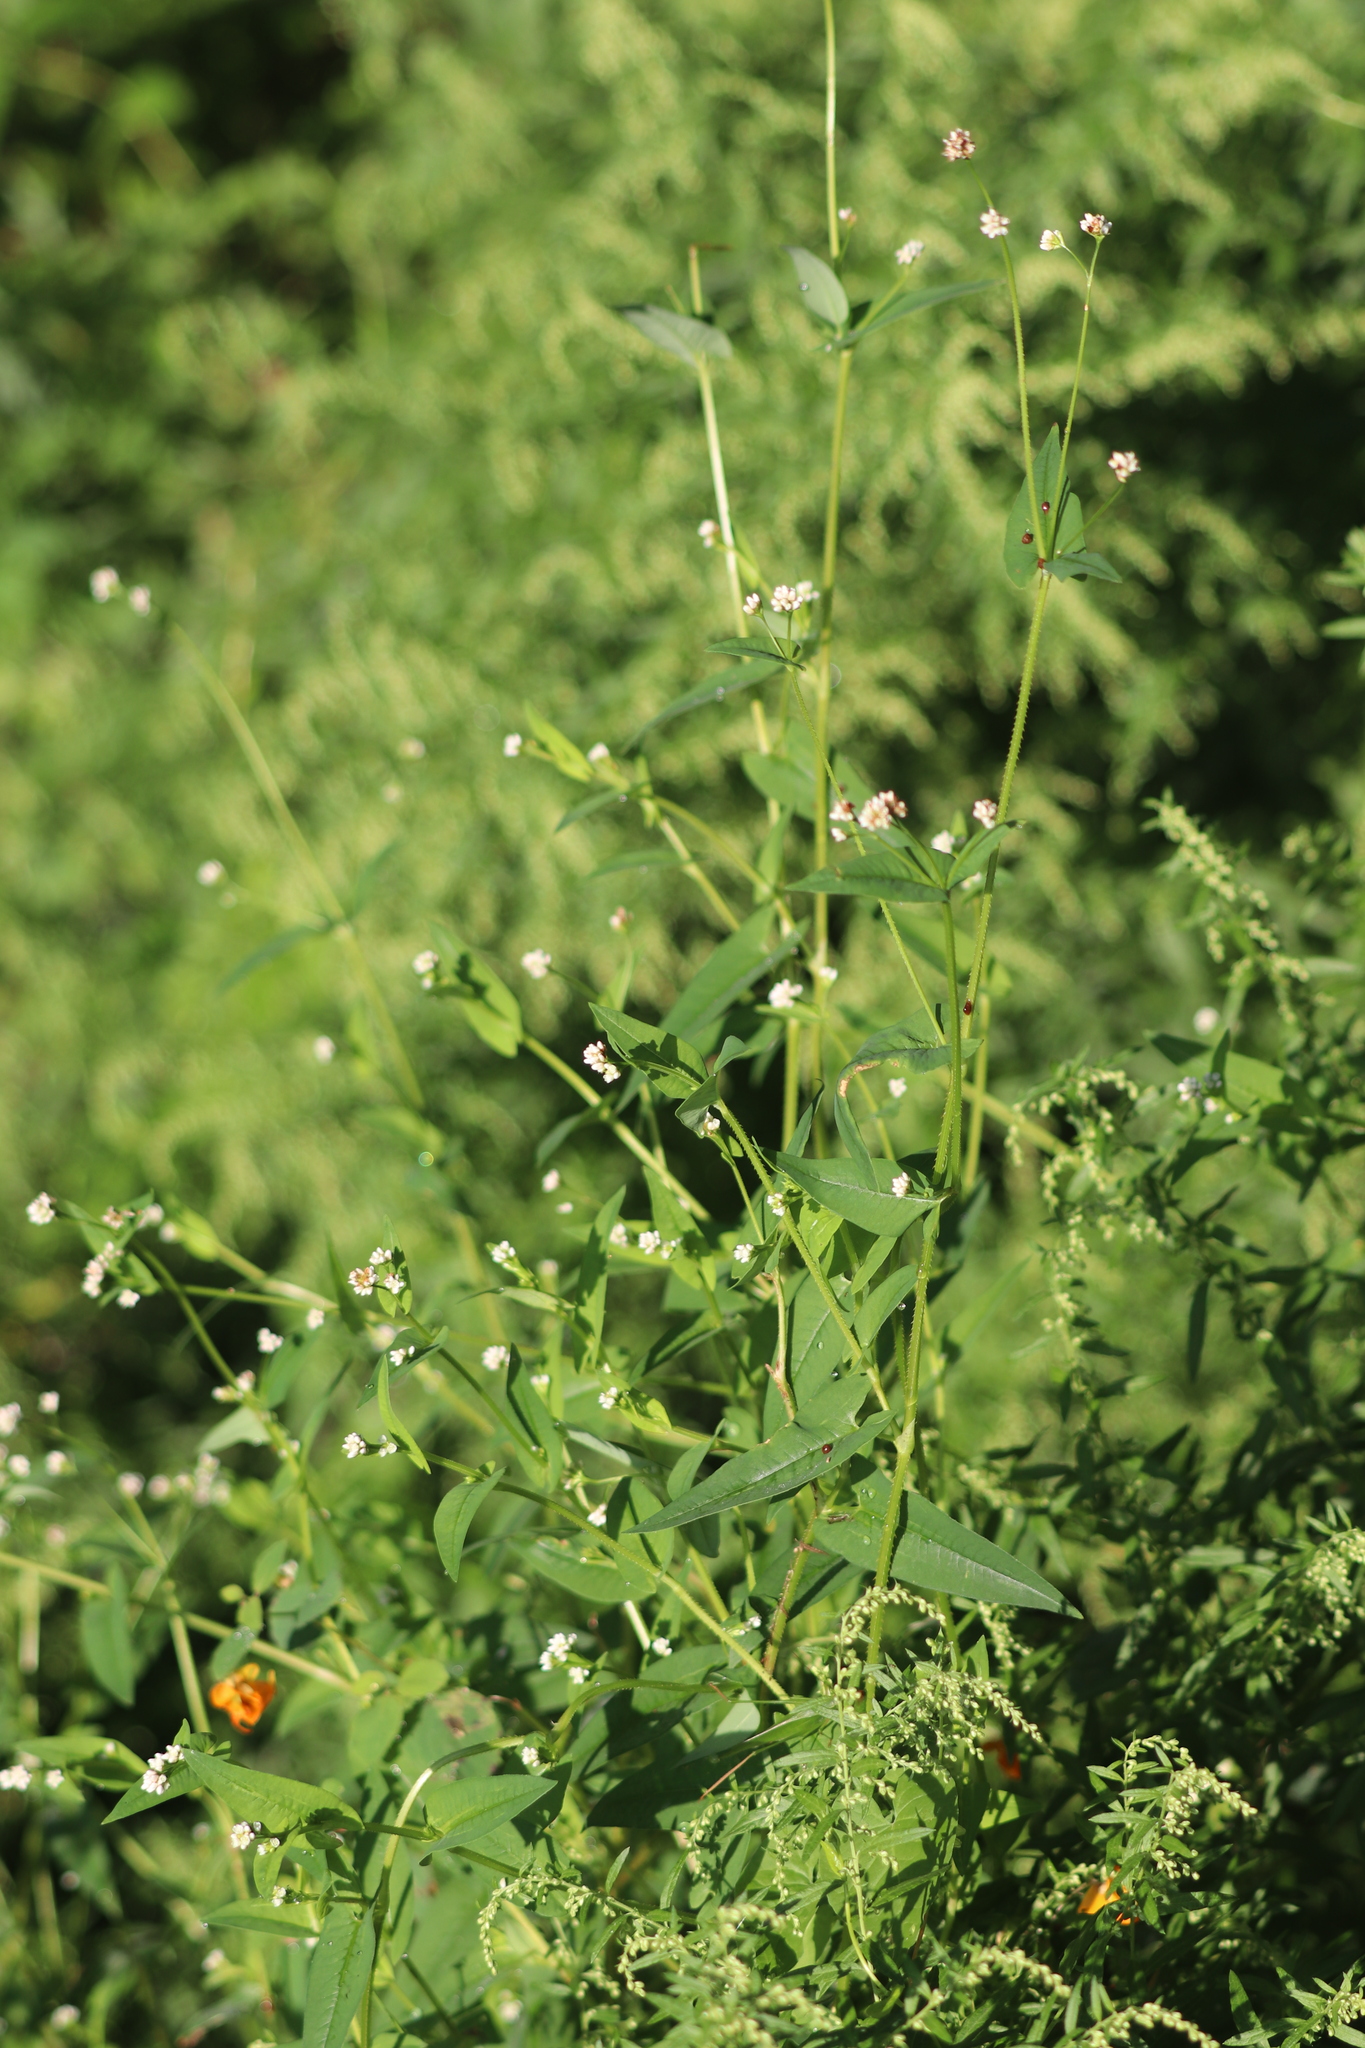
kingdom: Plantae
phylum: Tracheophyta
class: Magnoliopsida
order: Caryophyllales
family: Polygonaceae
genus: Persicaria
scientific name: Persicaria sagittata
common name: American tearthumb
